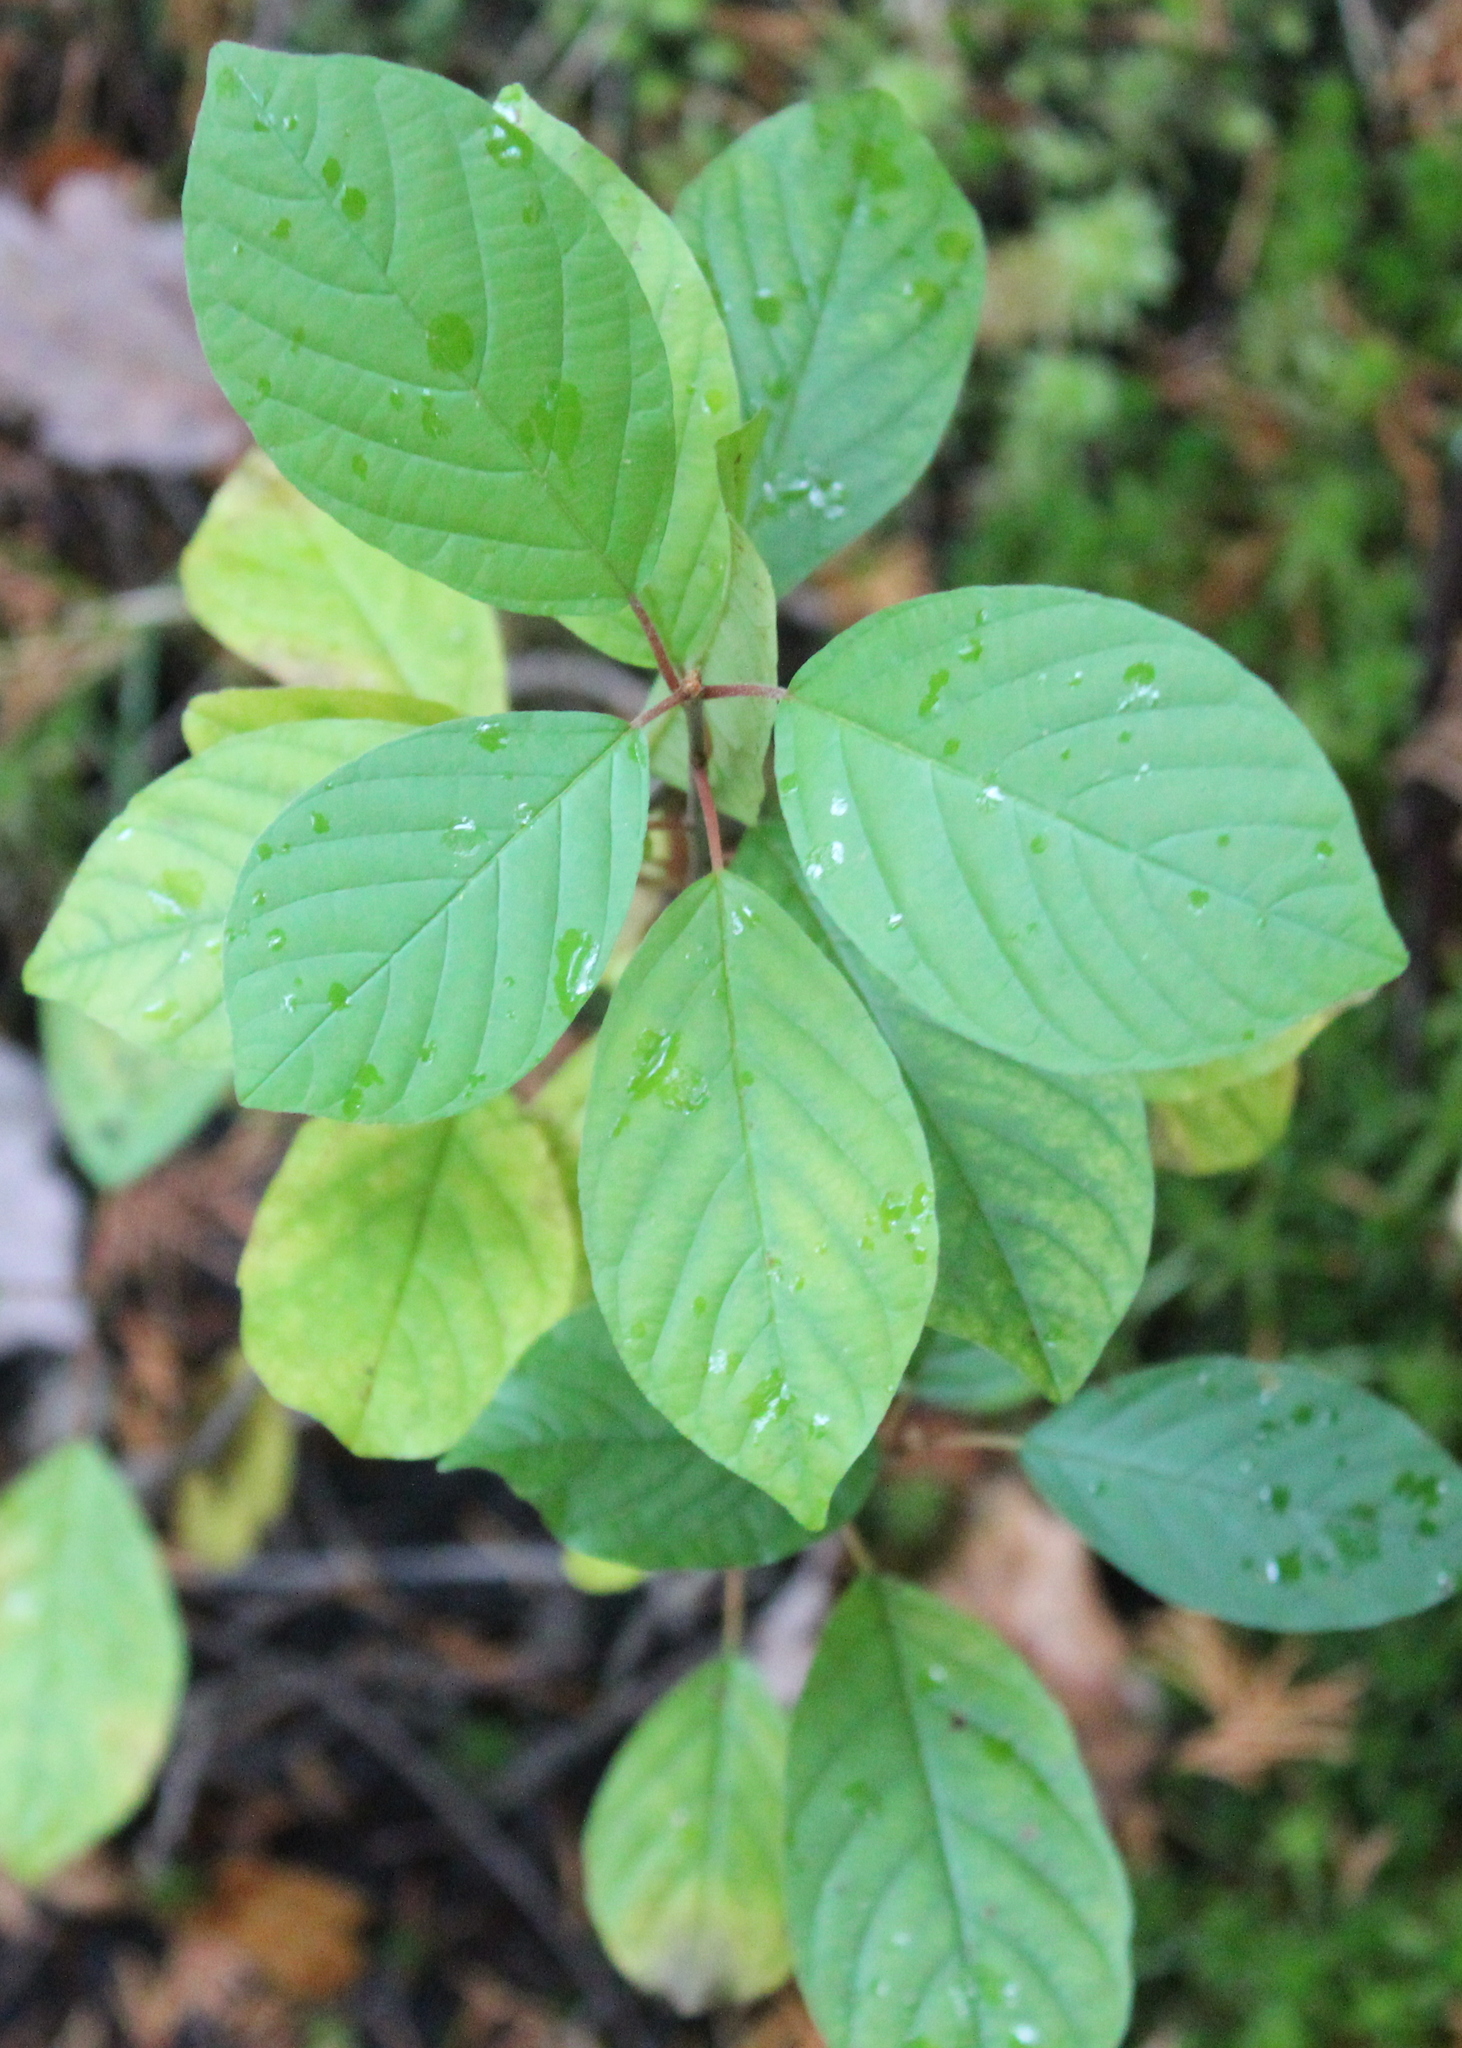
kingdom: Plantae
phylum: Tracheophyta
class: Magnoliopsida
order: Rosales
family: Rhamnaceae
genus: Frangula
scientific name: Frangula alnus
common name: Alder buckthorn
